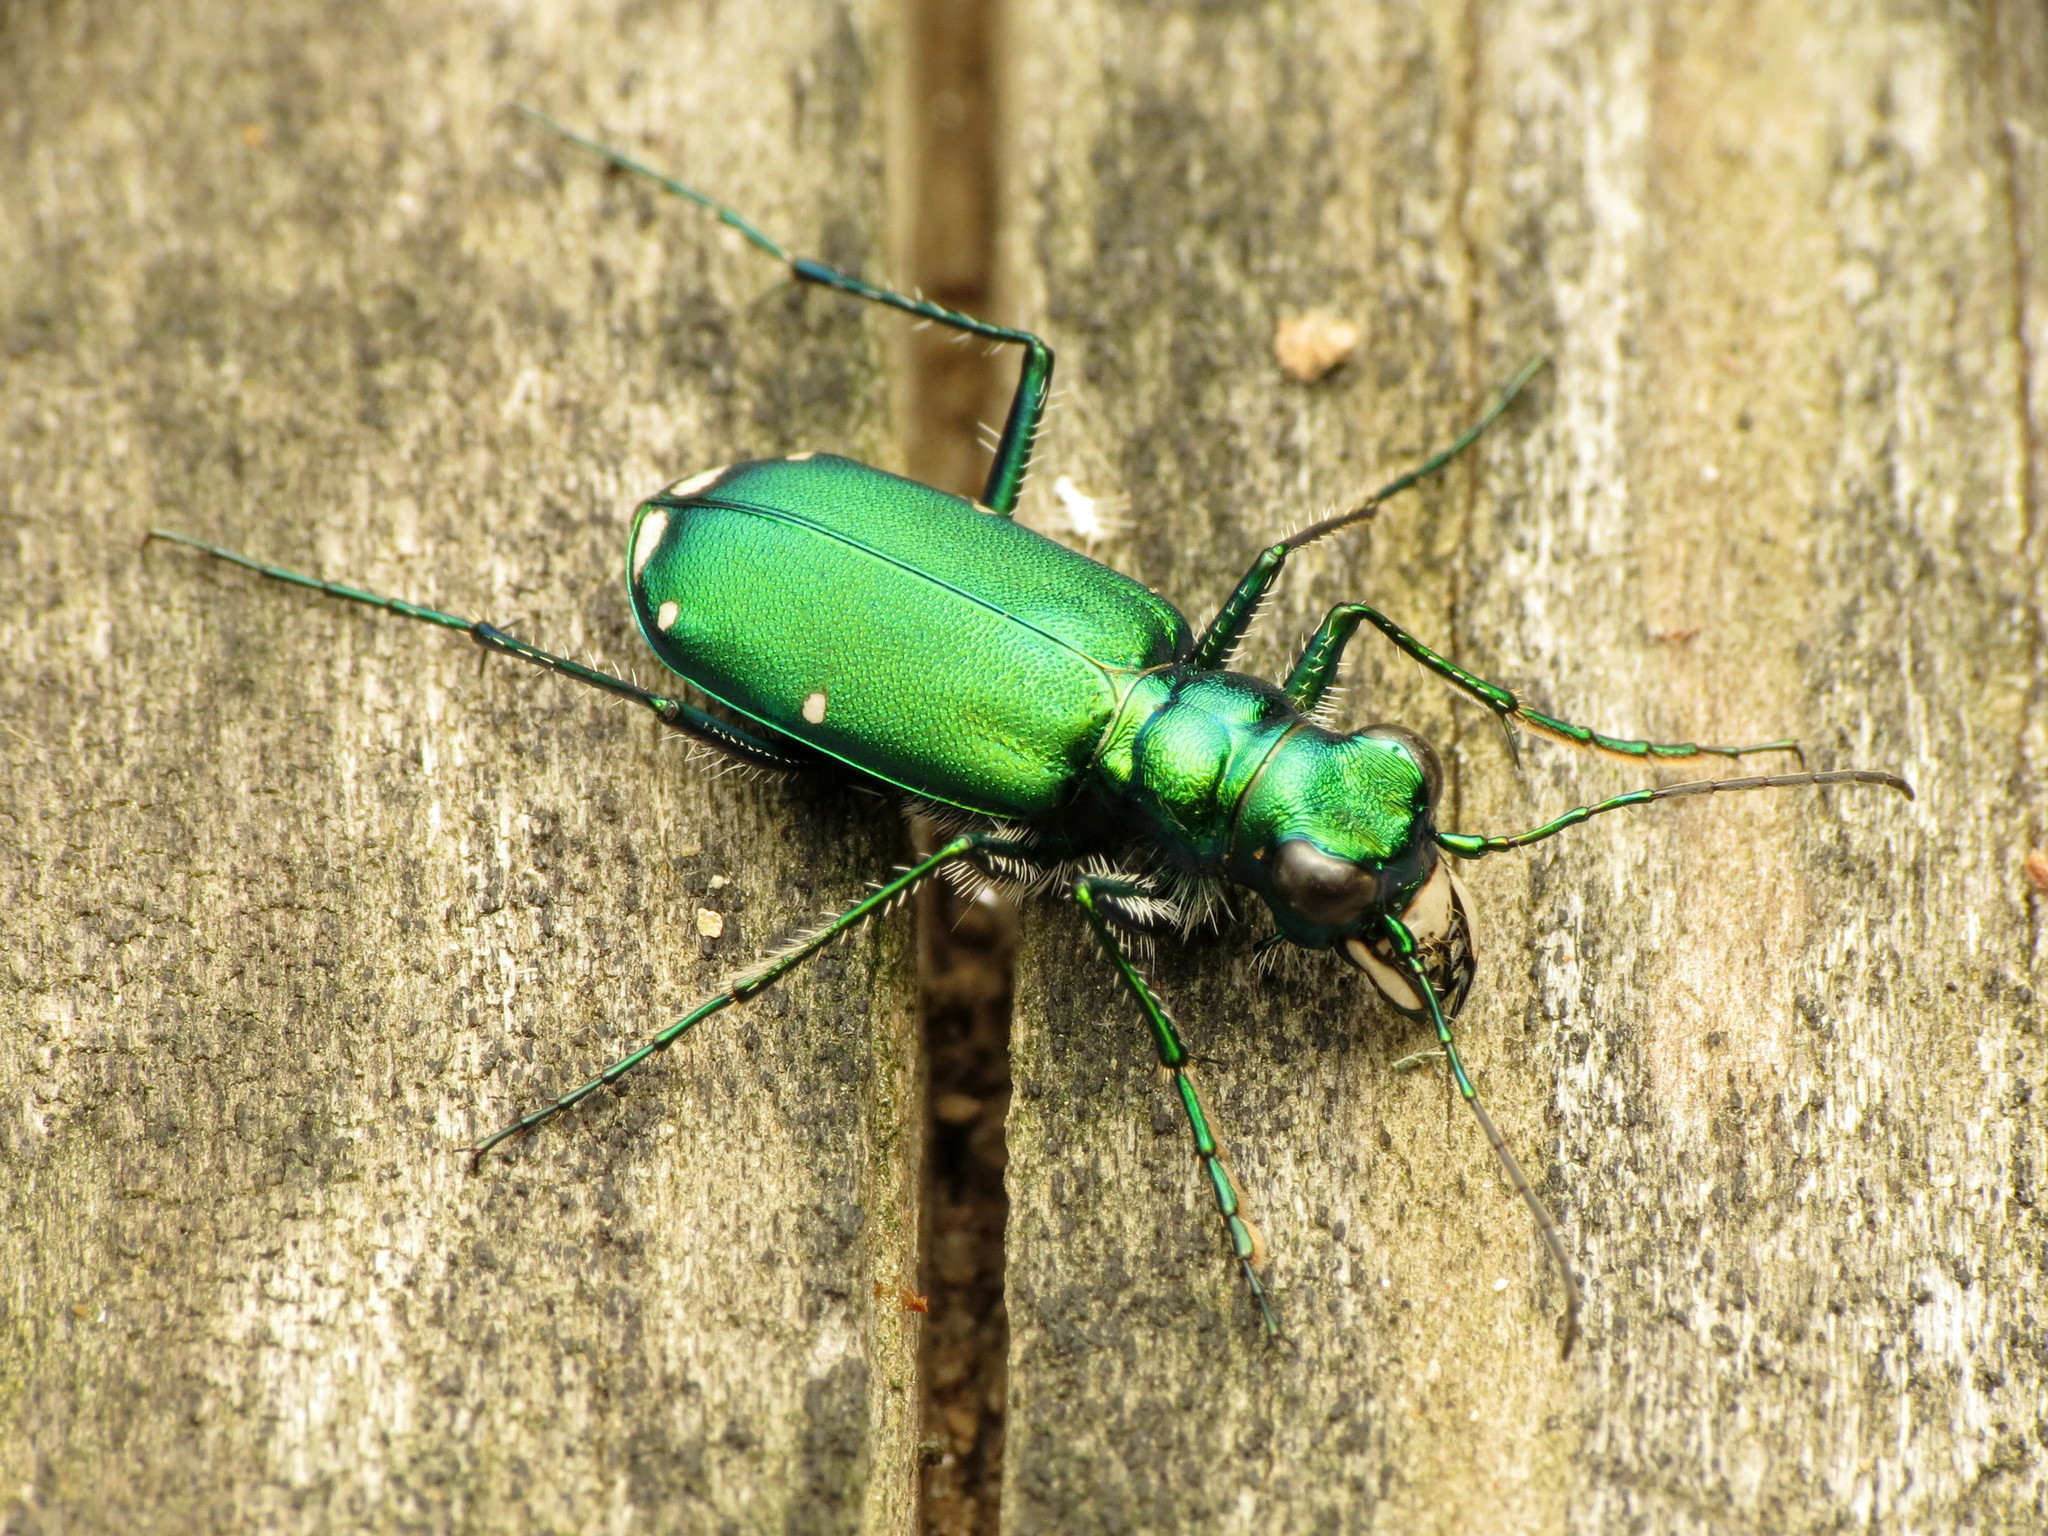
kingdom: Animalia
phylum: Arthropoda
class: Insecta
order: Coleoptera
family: Carabidae
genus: Cicindela
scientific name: Cicindela sexguttata
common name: Six-spotted tiger beetle
